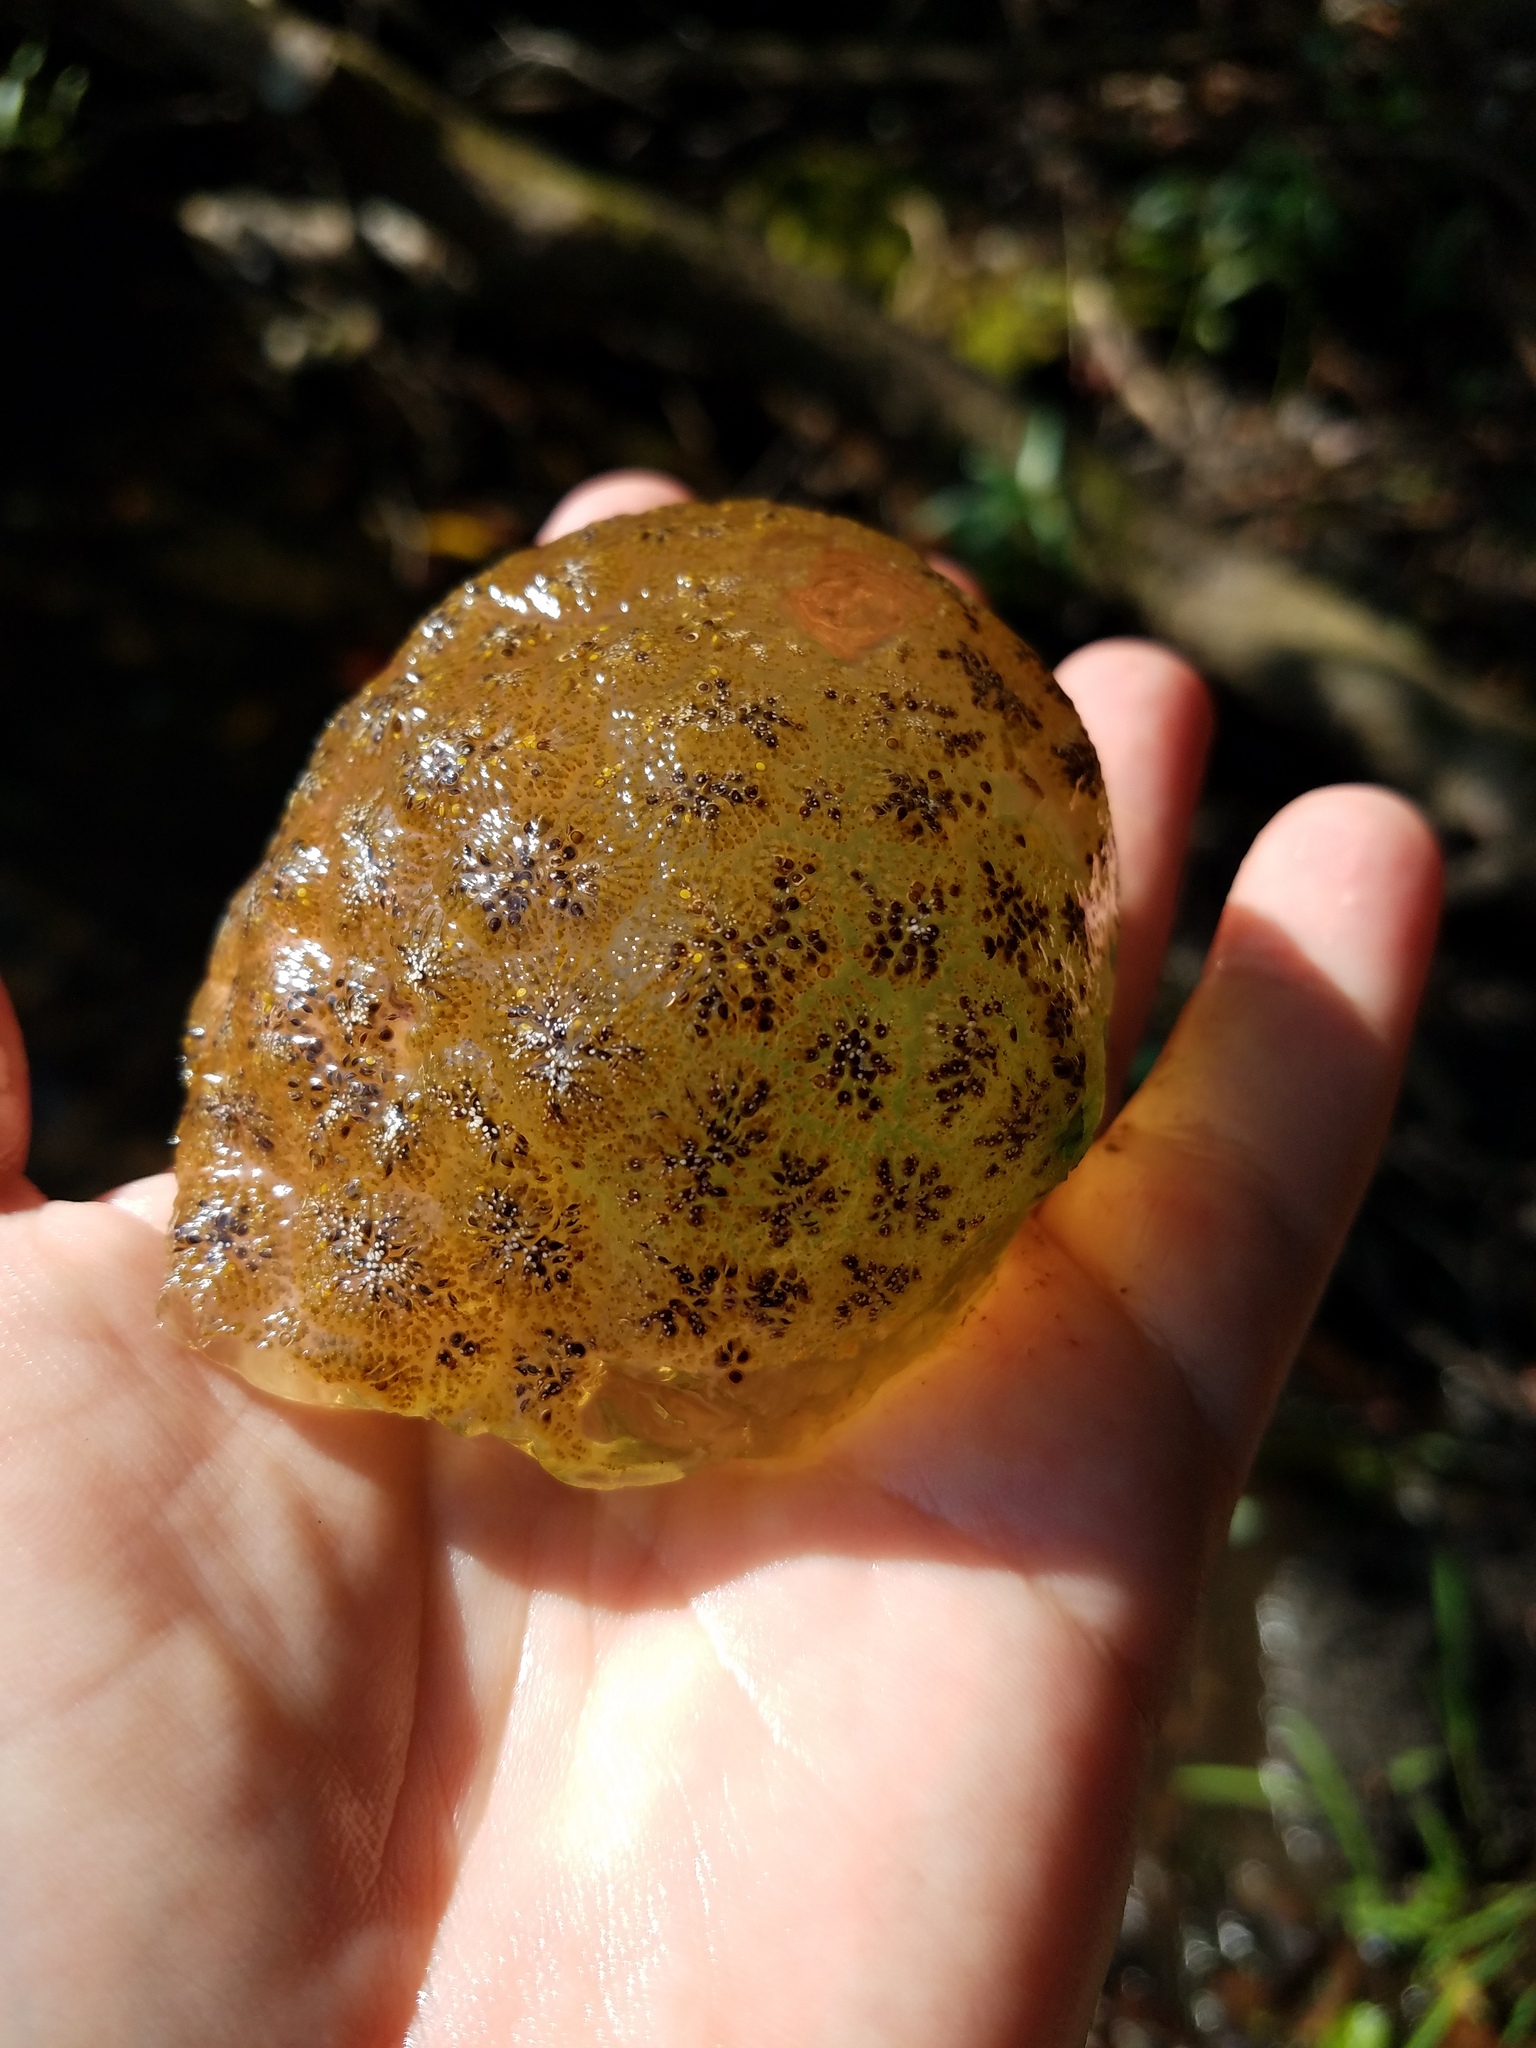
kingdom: Animalia
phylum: Bryozoa
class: Phylactolaemata
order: Plumatellida
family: Pectinatellidae
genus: Pectinatella
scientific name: Pectinatella magnifica
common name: Magnificent bryozoan
